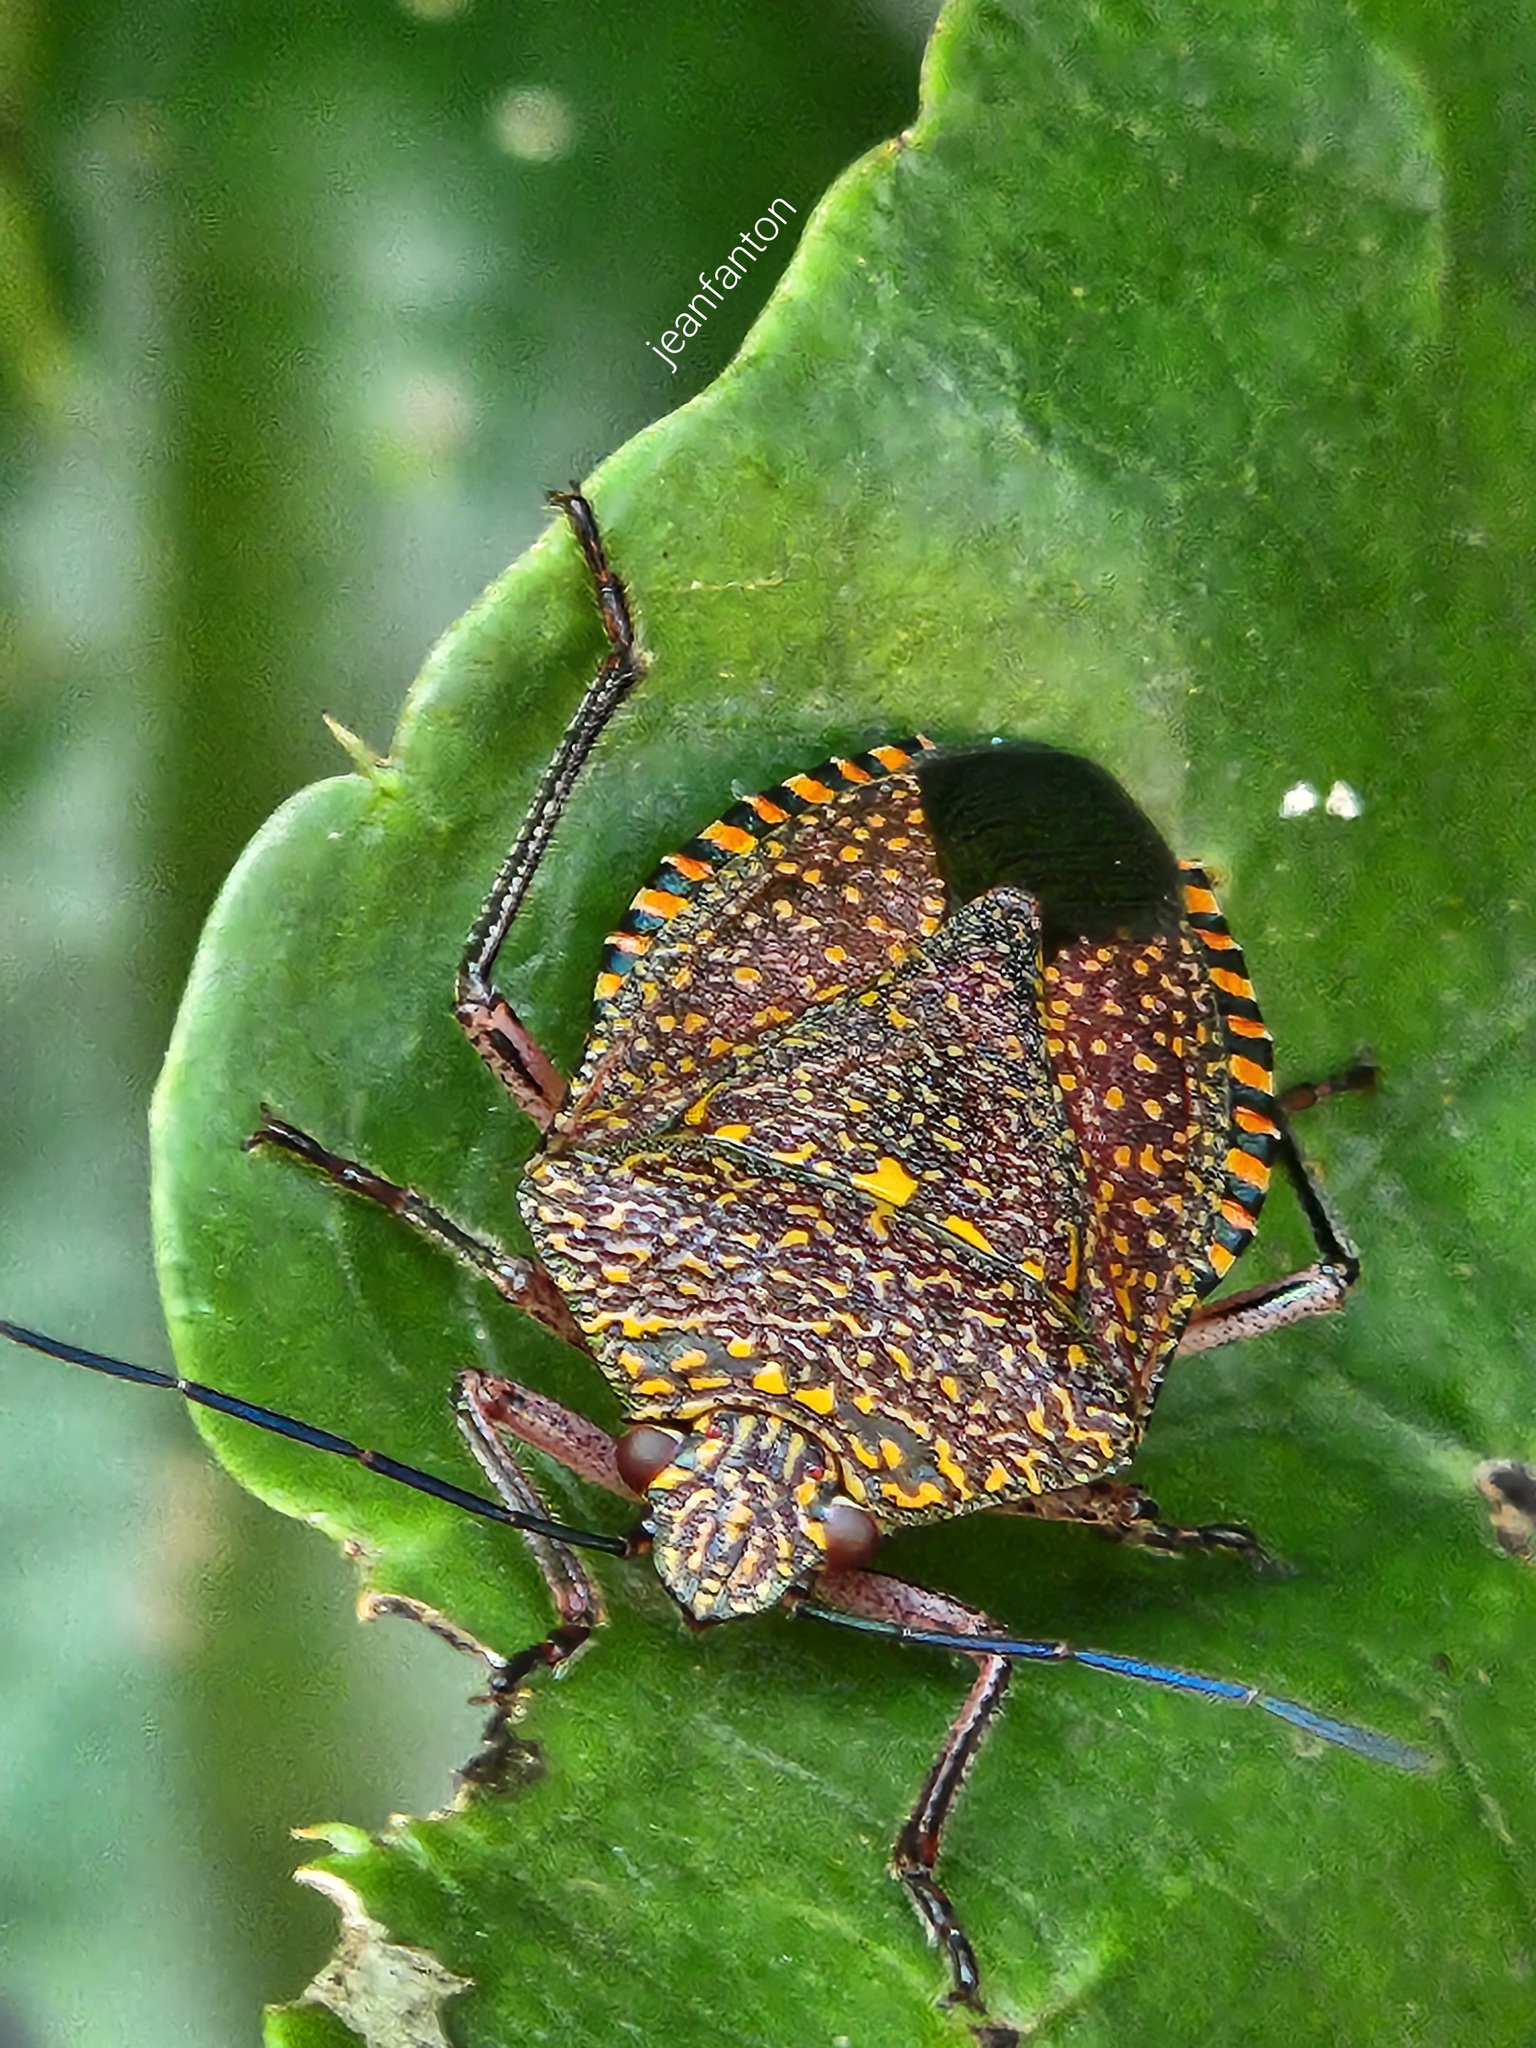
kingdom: Animalia
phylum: Arthropoda
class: Insecta
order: Hemiptera
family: Pentatomidae
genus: Pellaea
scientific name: Pellaea stictica
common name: Stink bug
